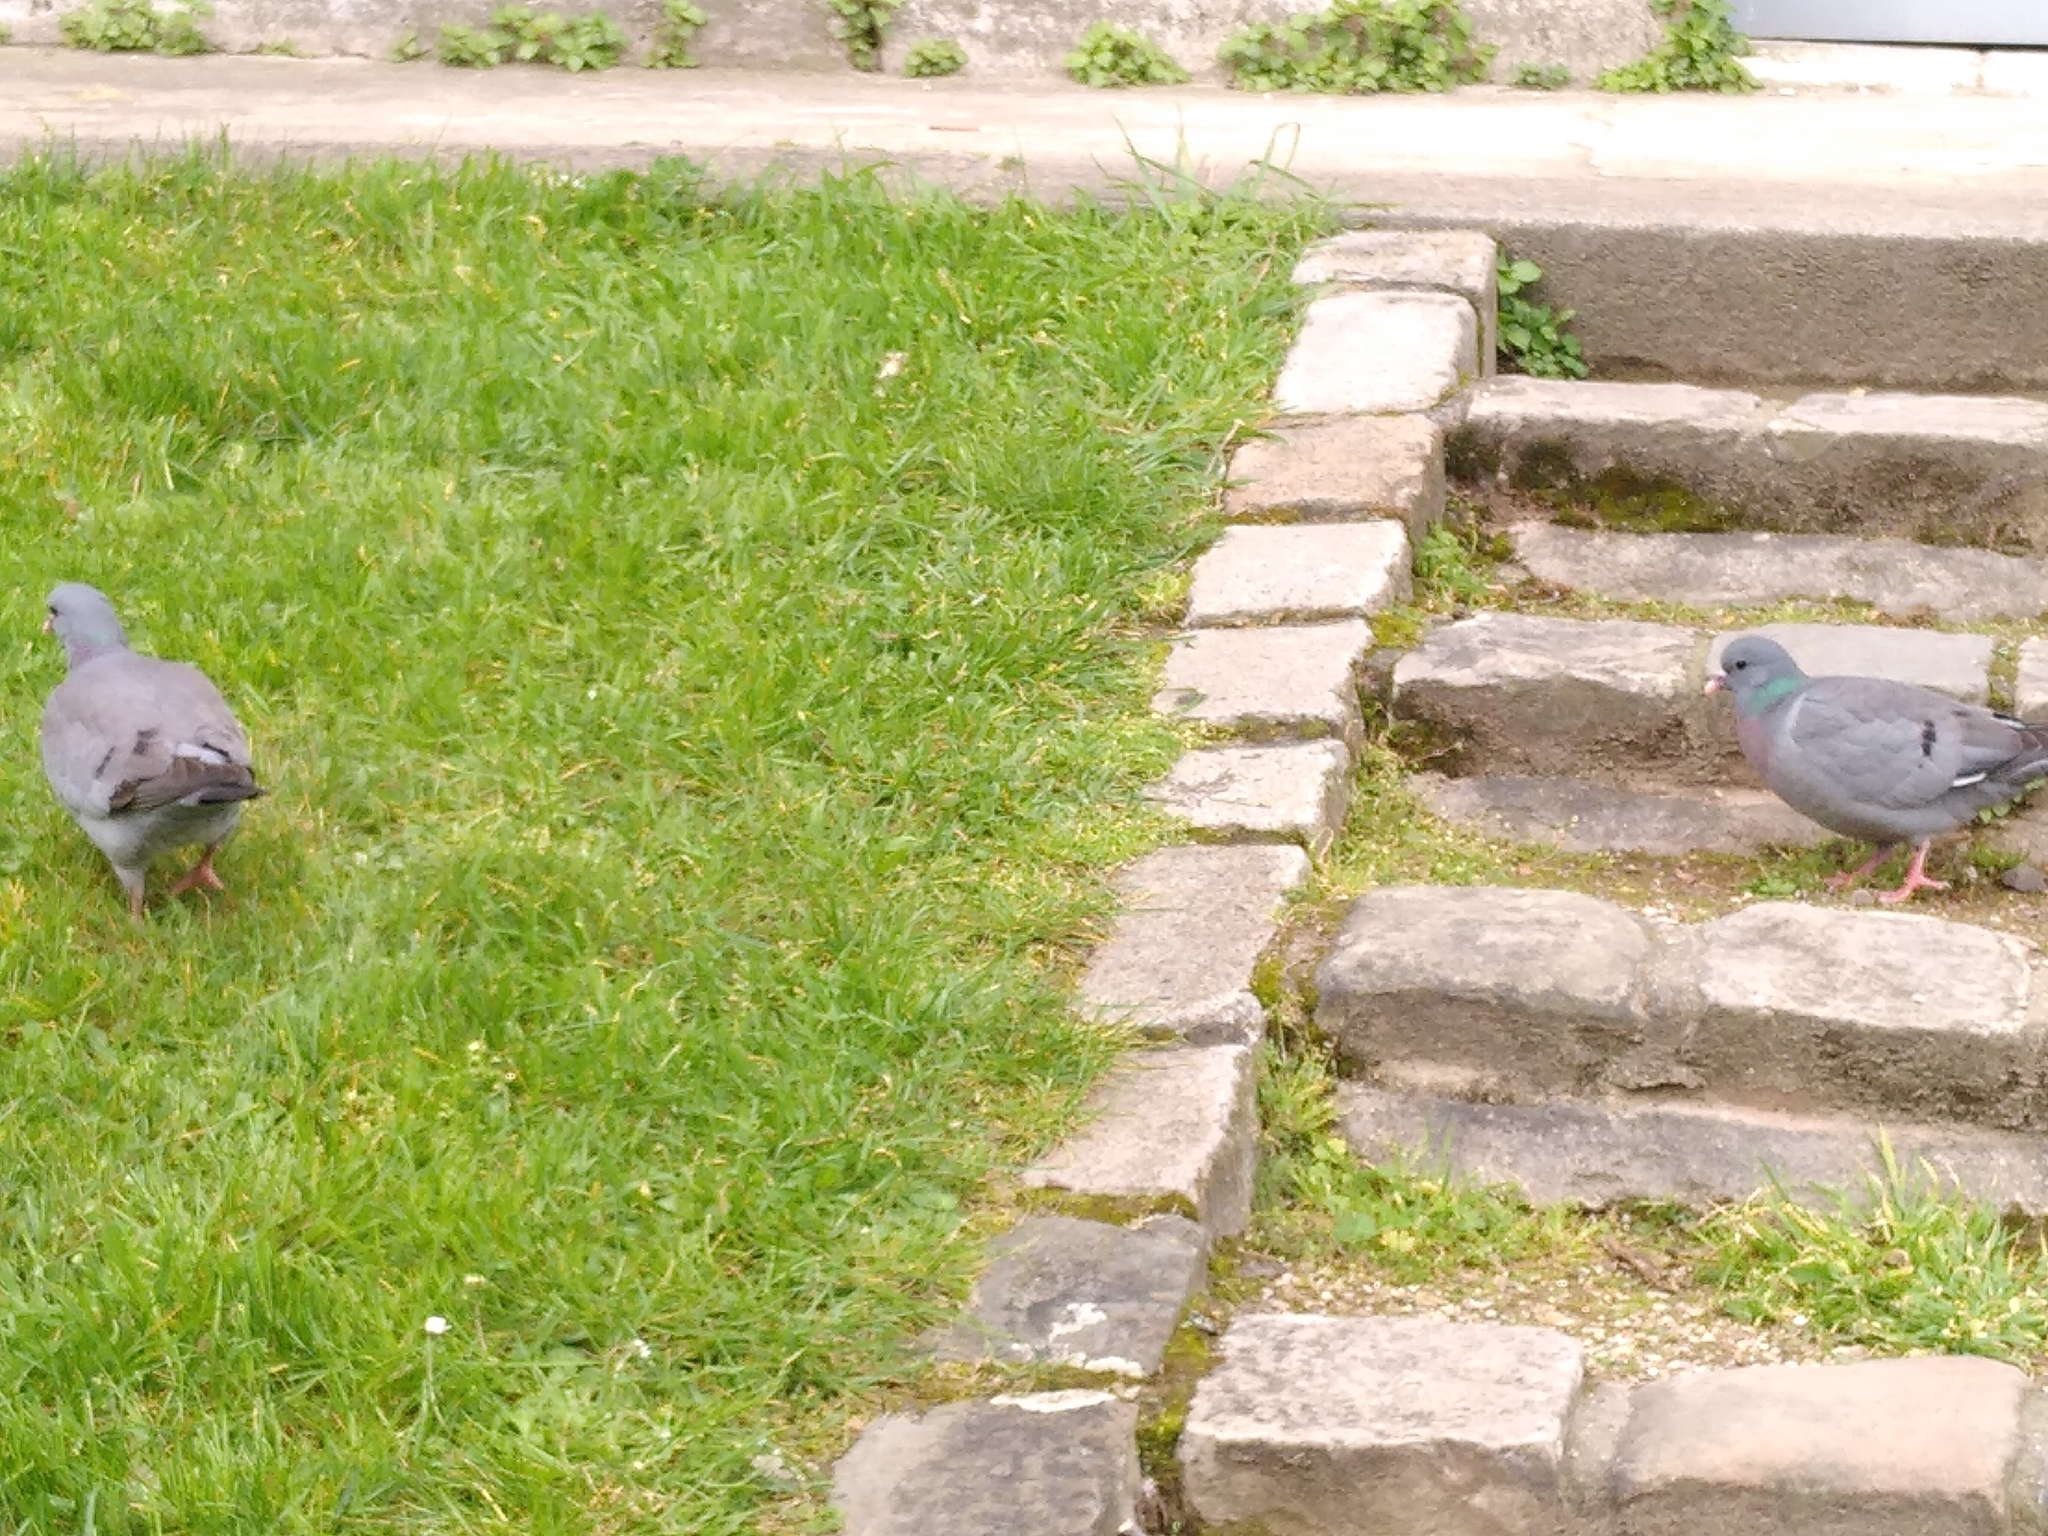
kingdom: Animalia
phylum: Chordata
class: Aves
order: Columbiformes
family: Columbidae
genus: Columba
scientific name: Columba oenas
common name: Stock dove
